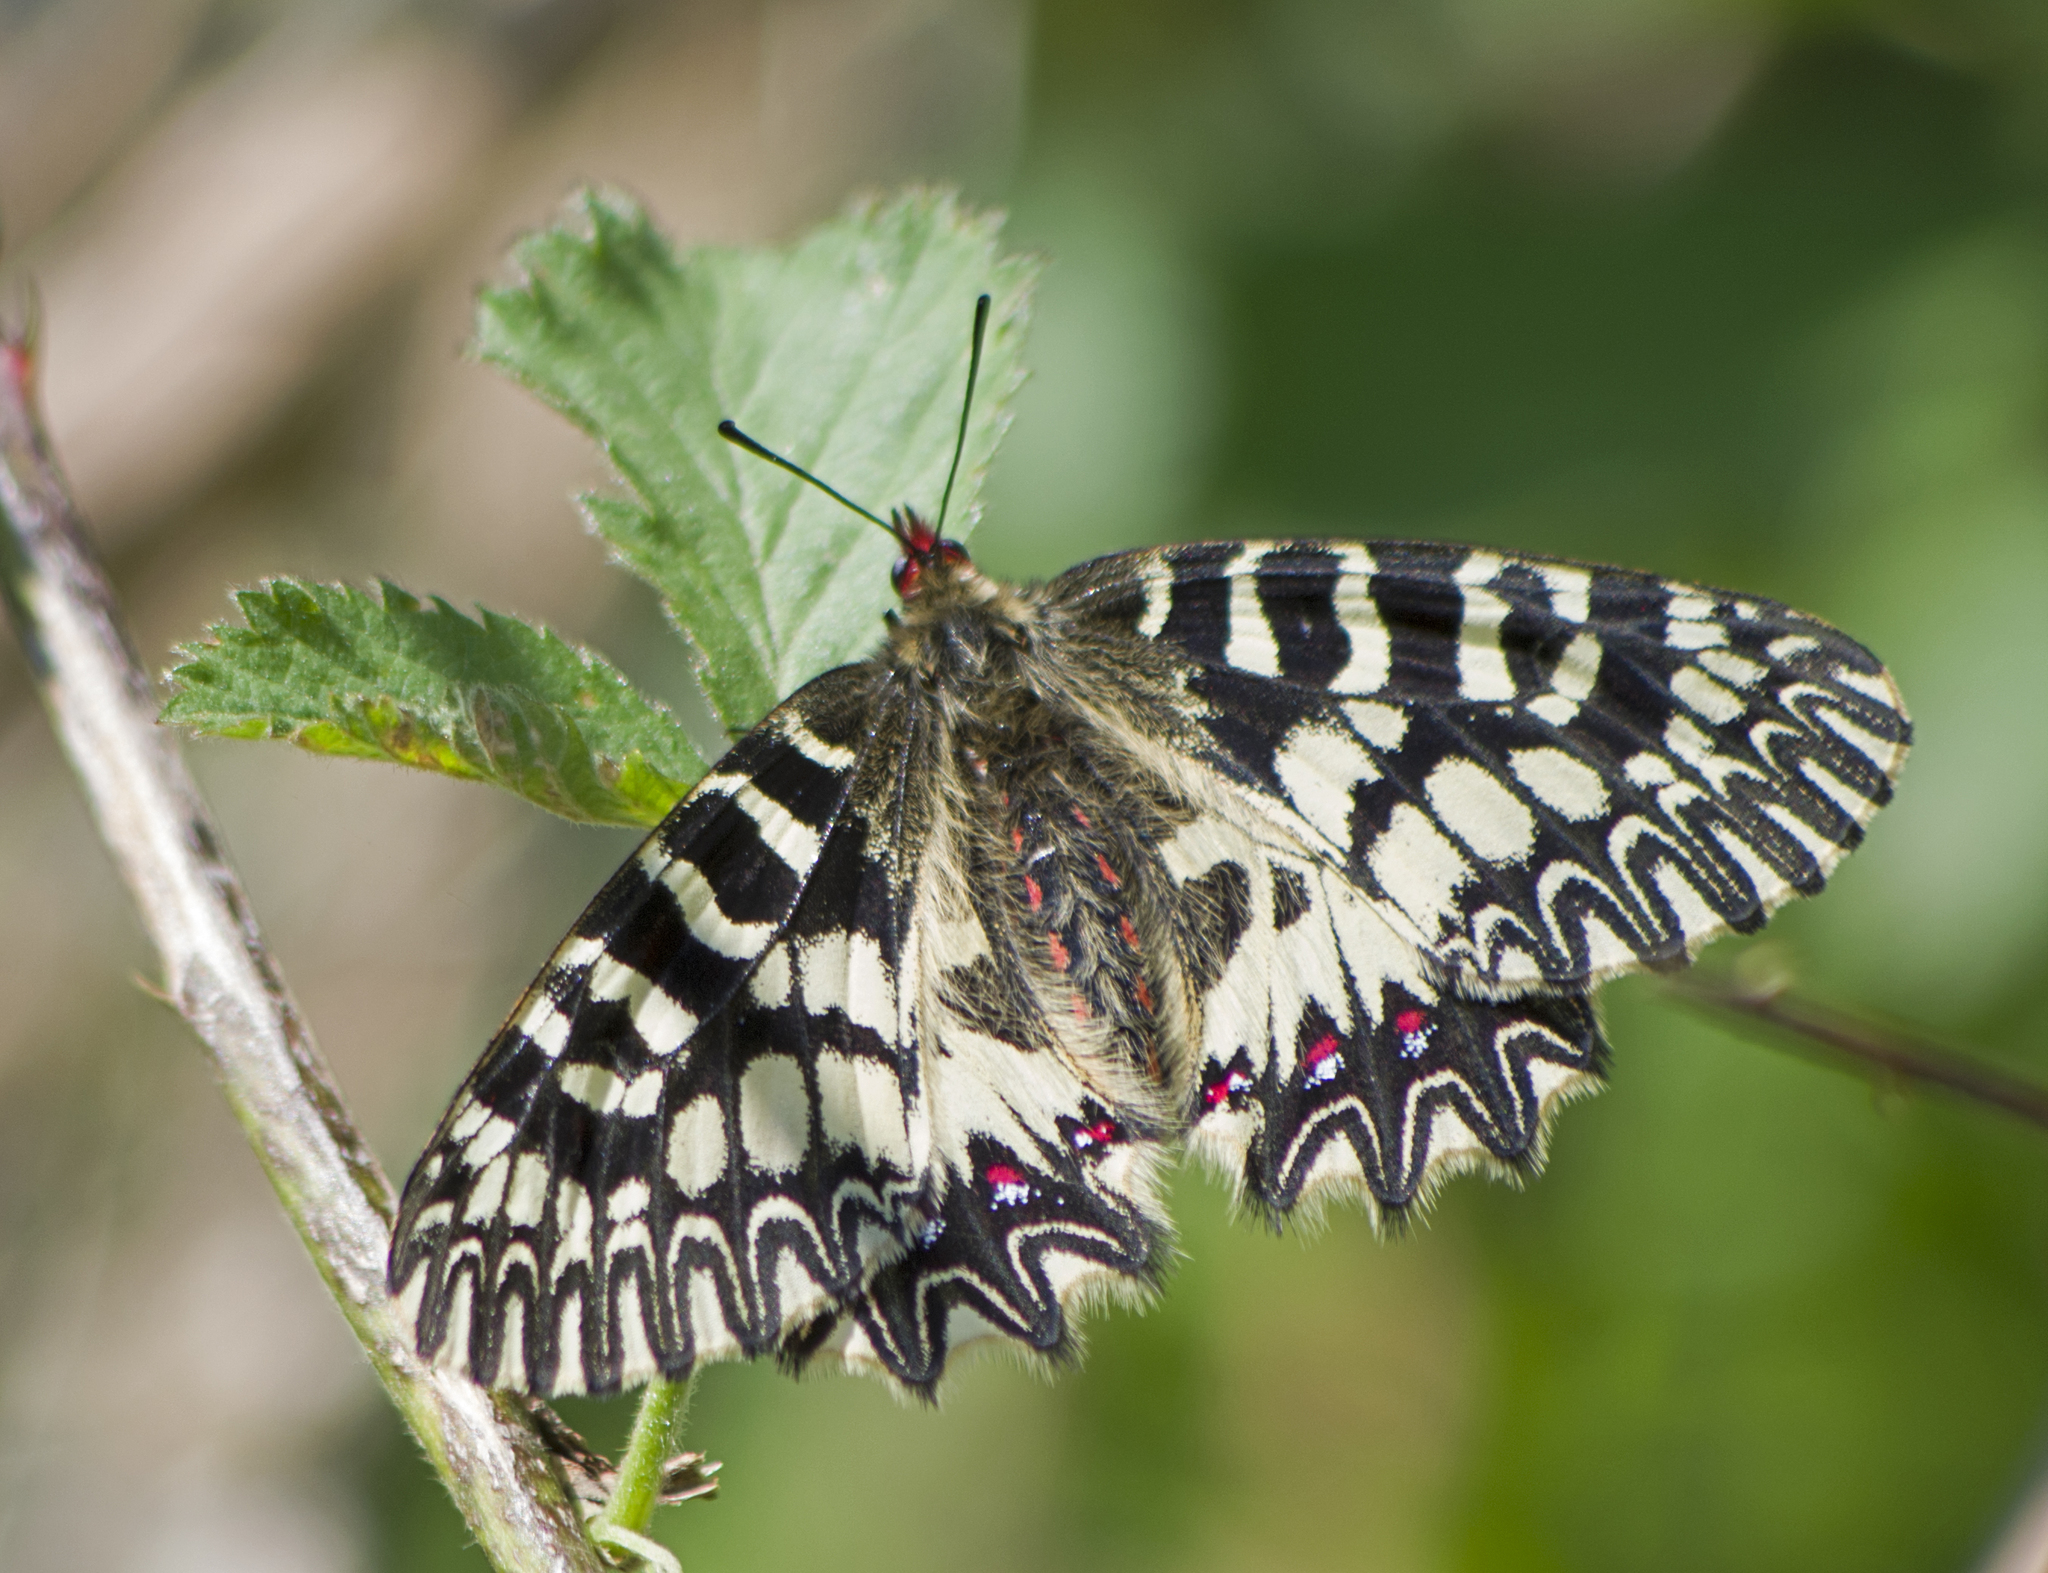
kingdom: Animalia
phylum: Arthropoda
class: Insecta
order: Lepidoptera
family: Papilionidae
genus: Zerynthia
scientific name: Zerynthia polyxena
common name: Southern festoon
